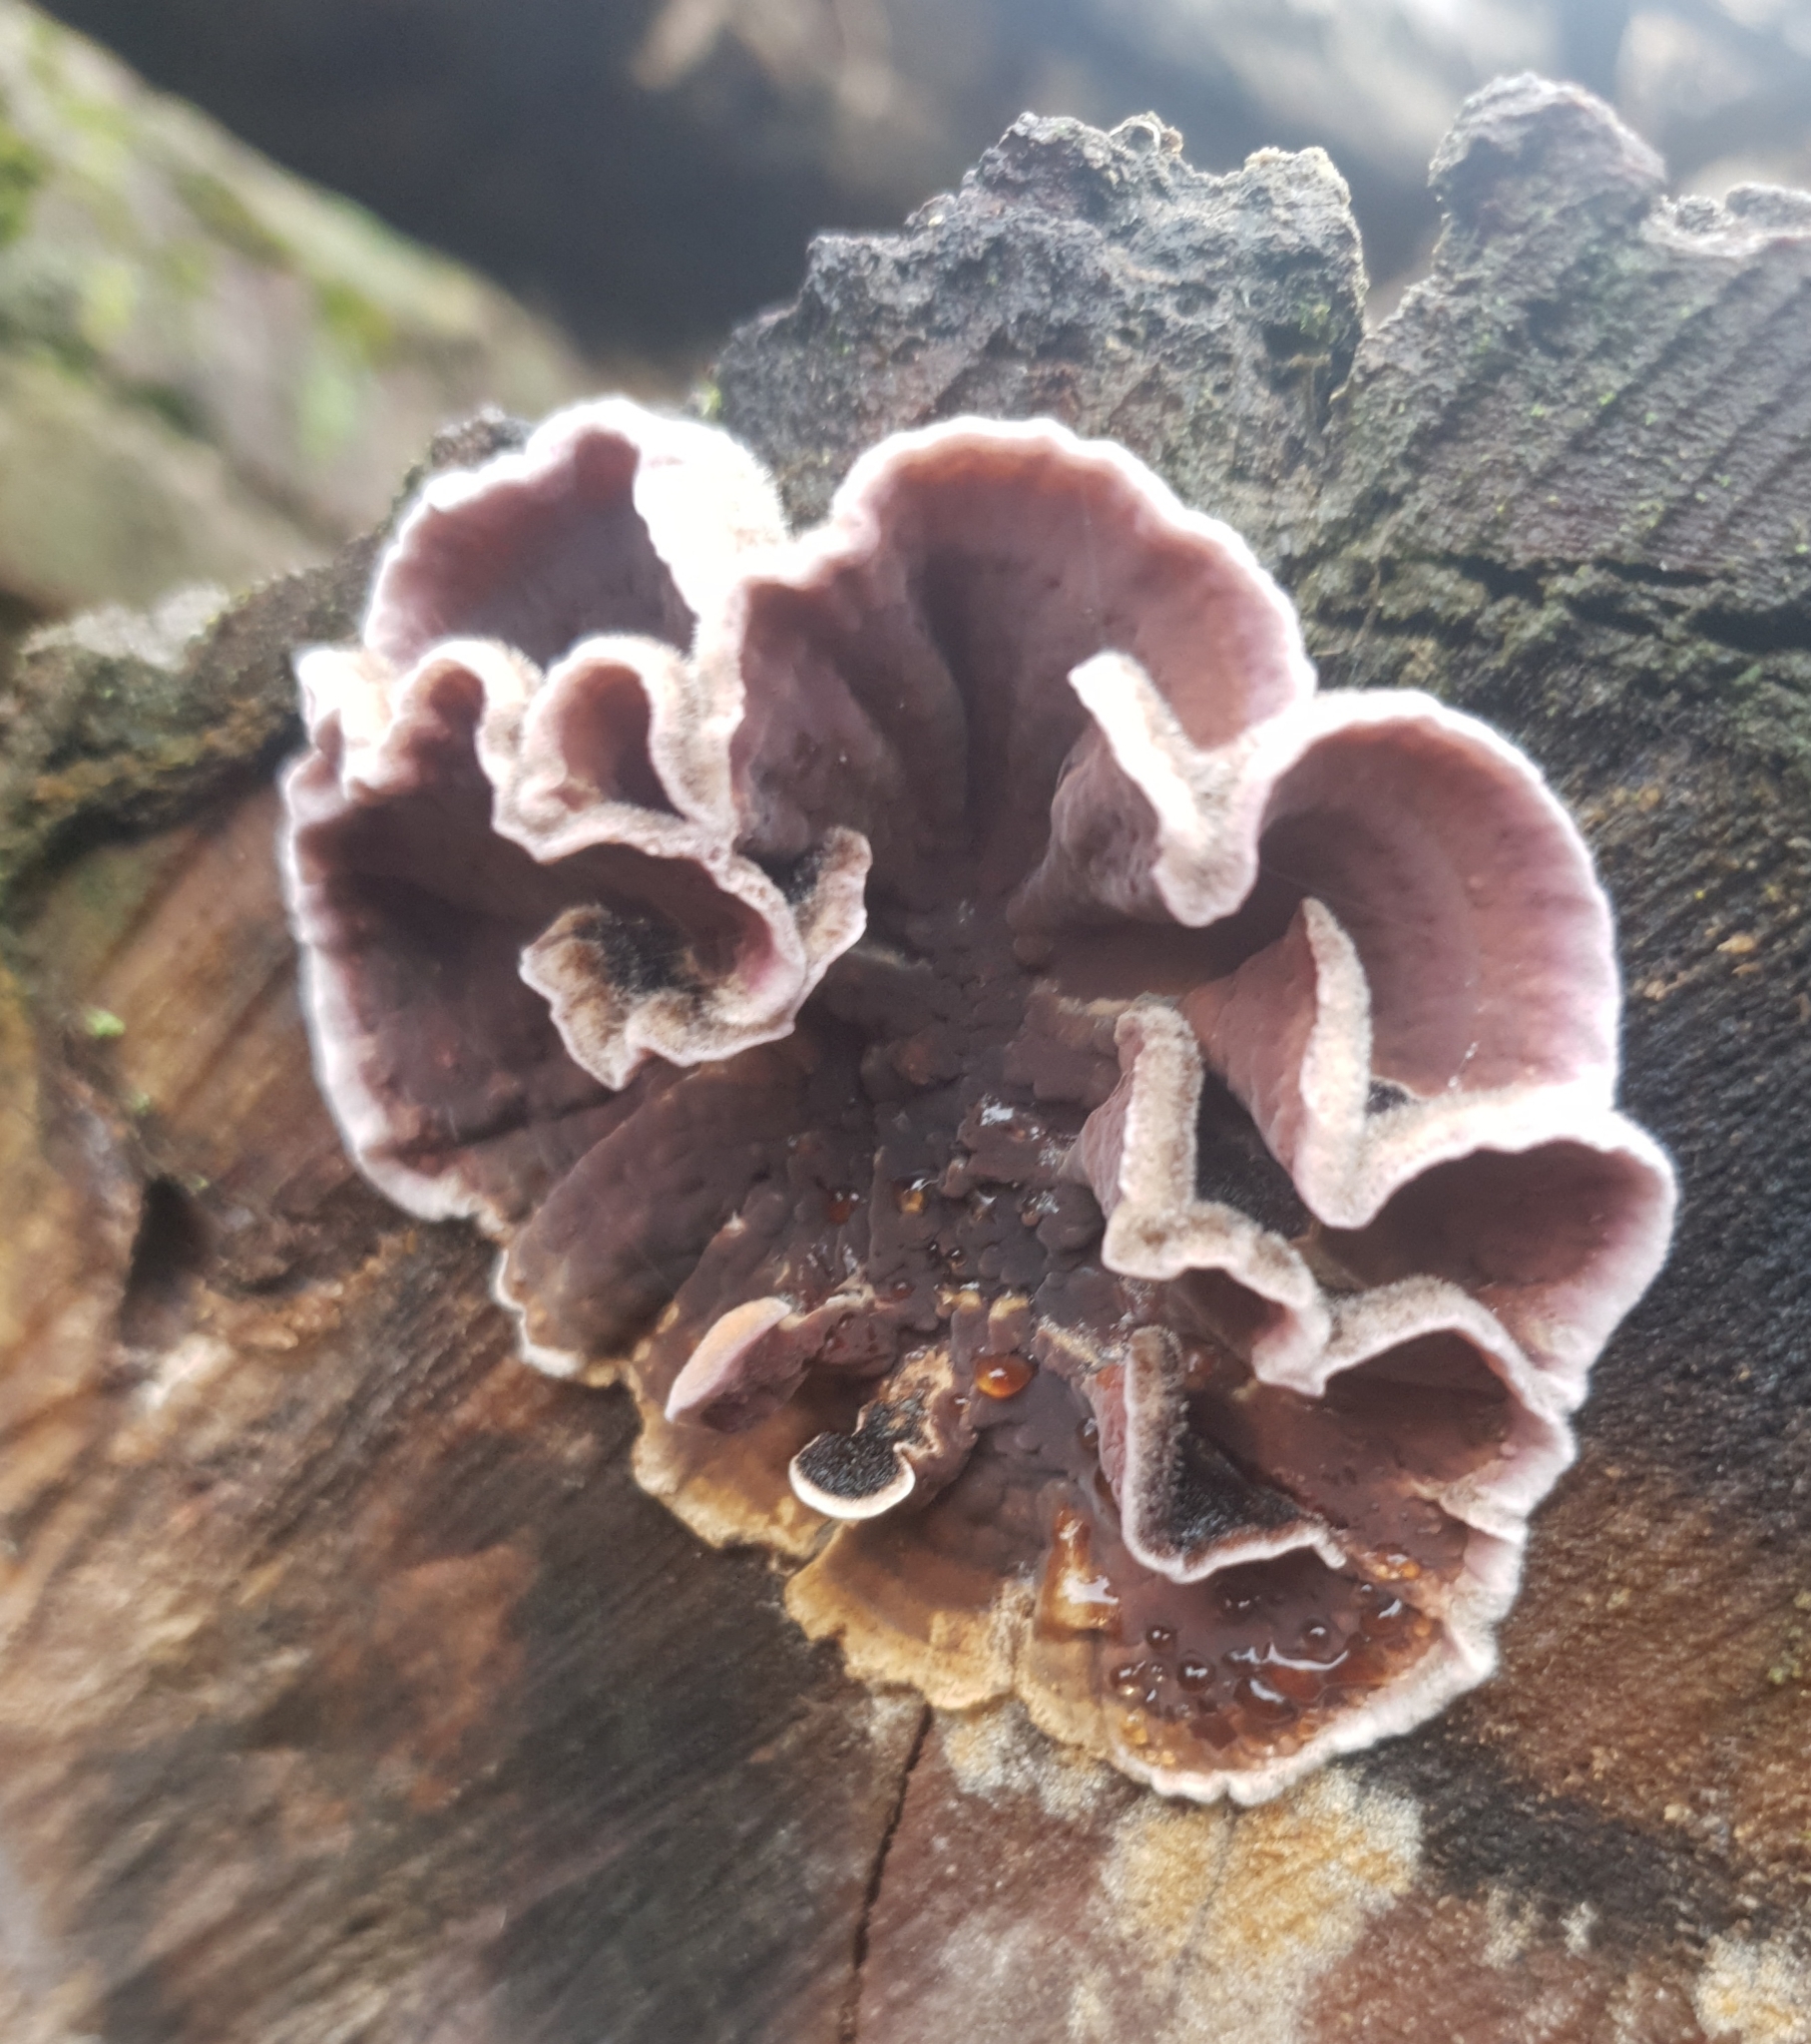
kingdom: Fungi
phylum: Basidiomycota
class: Agaricomycetes
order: Agaricales
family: Cyphellaceae
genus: Chondrostereum
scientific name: Chondrostereum purpureum
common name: Silver leaf disease
